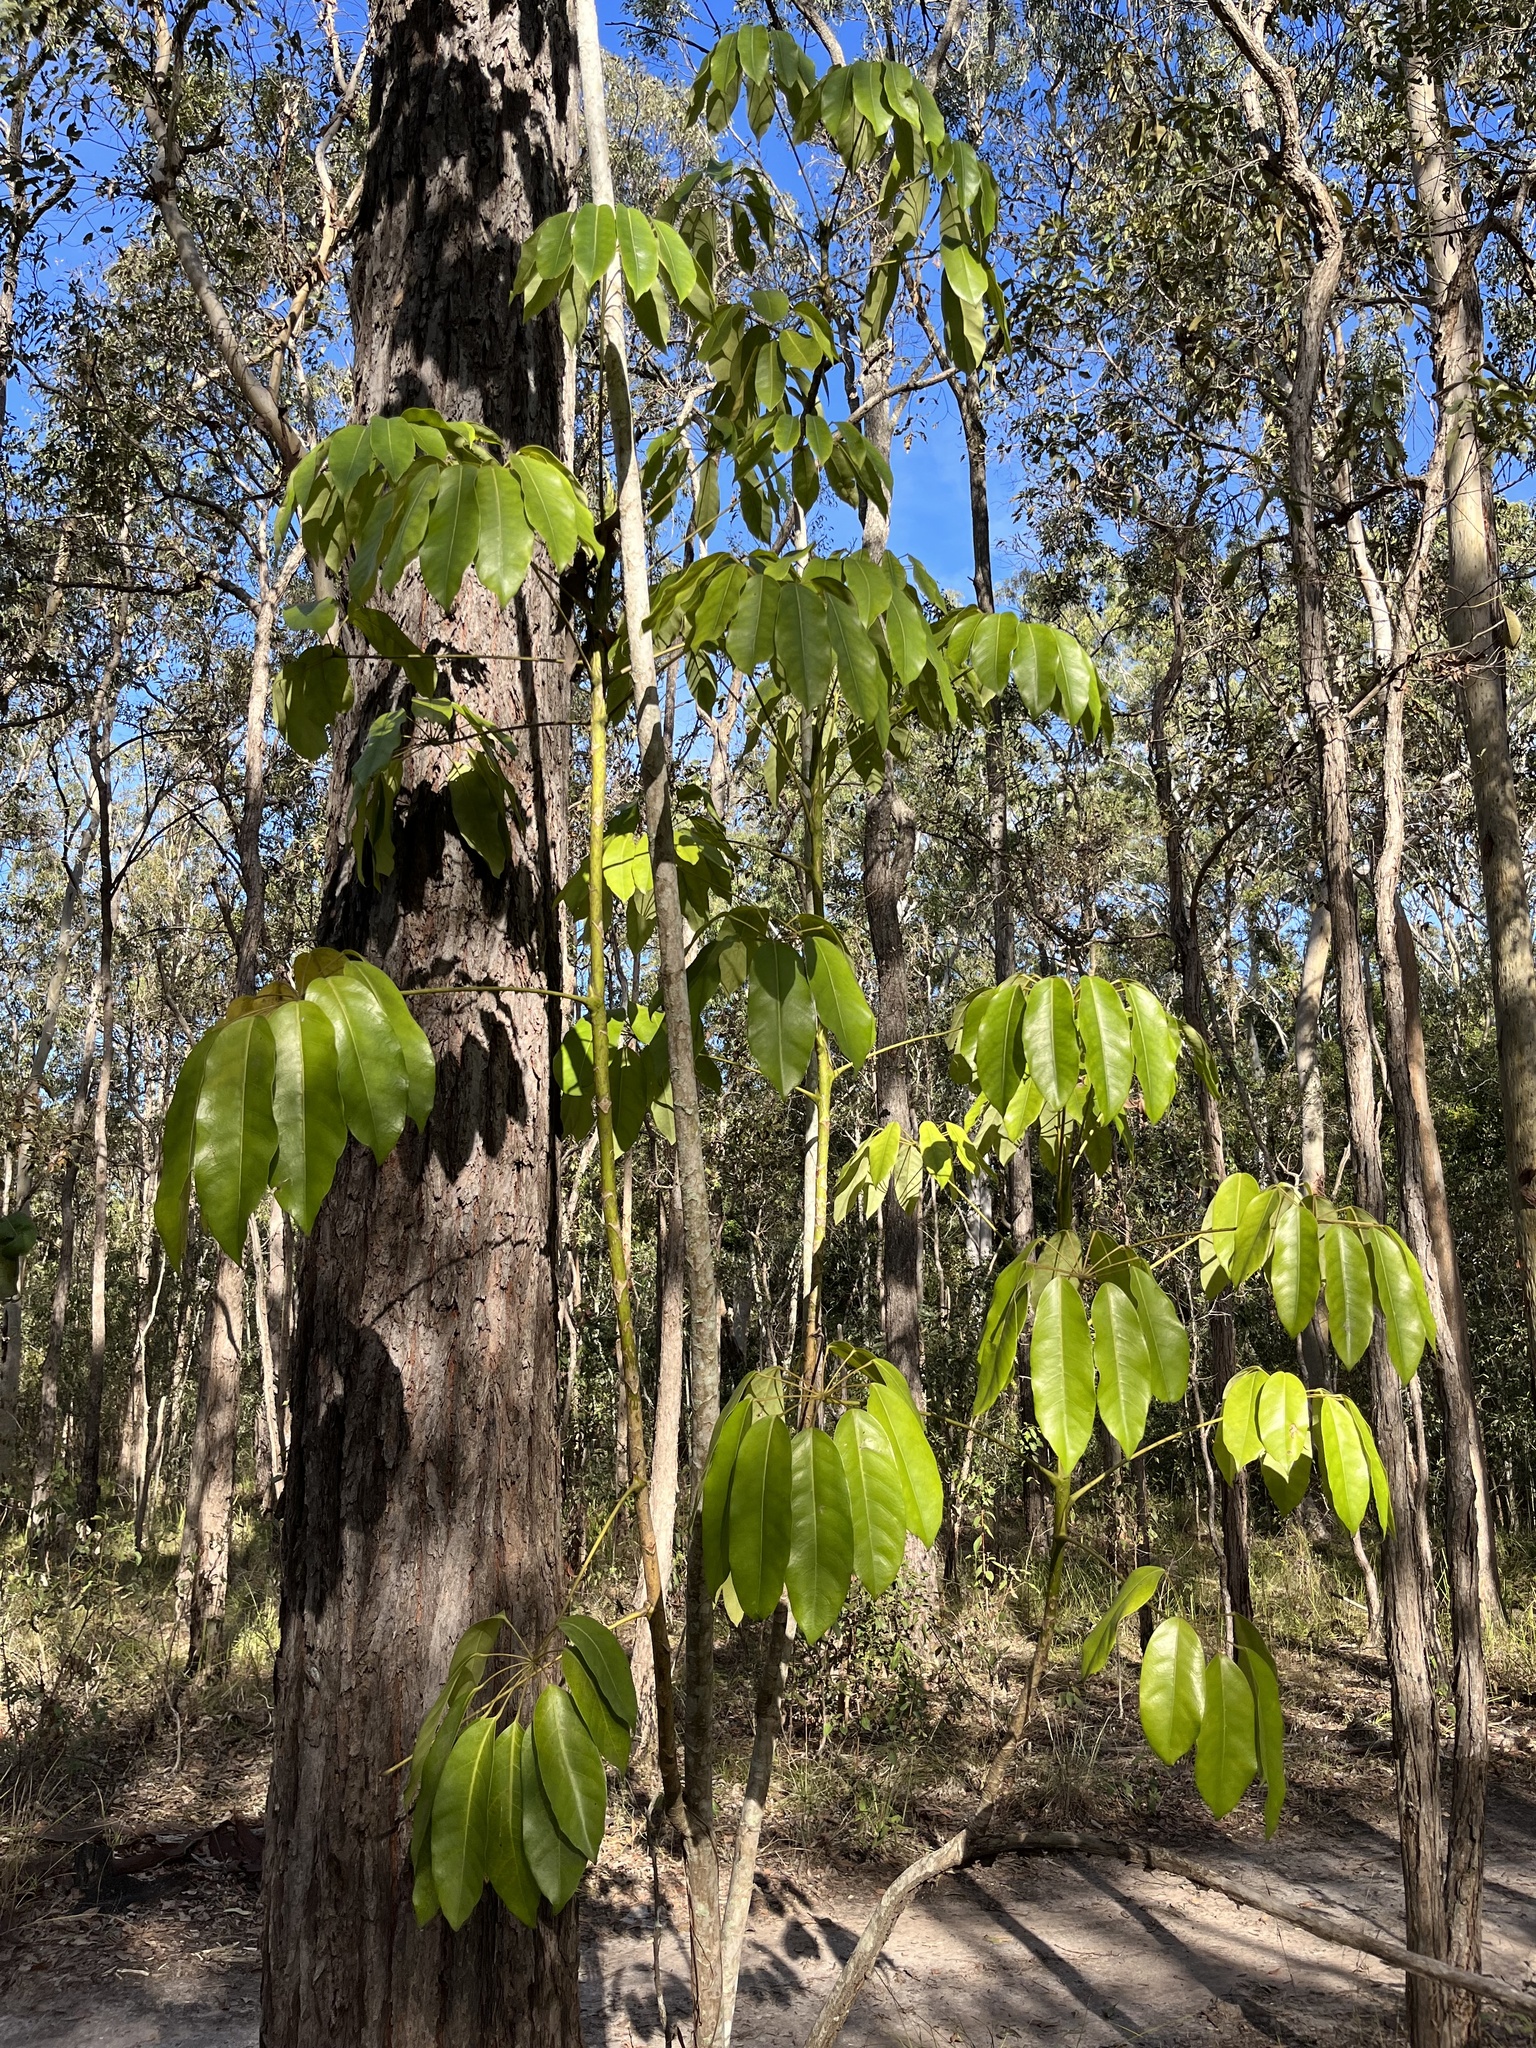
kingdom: Plantae
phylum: Tracheophyta
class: Magnoliopsida
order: Apiales
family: Araliaceae
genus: Heptapleurum
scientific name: Heptapleurum actinophyllum
